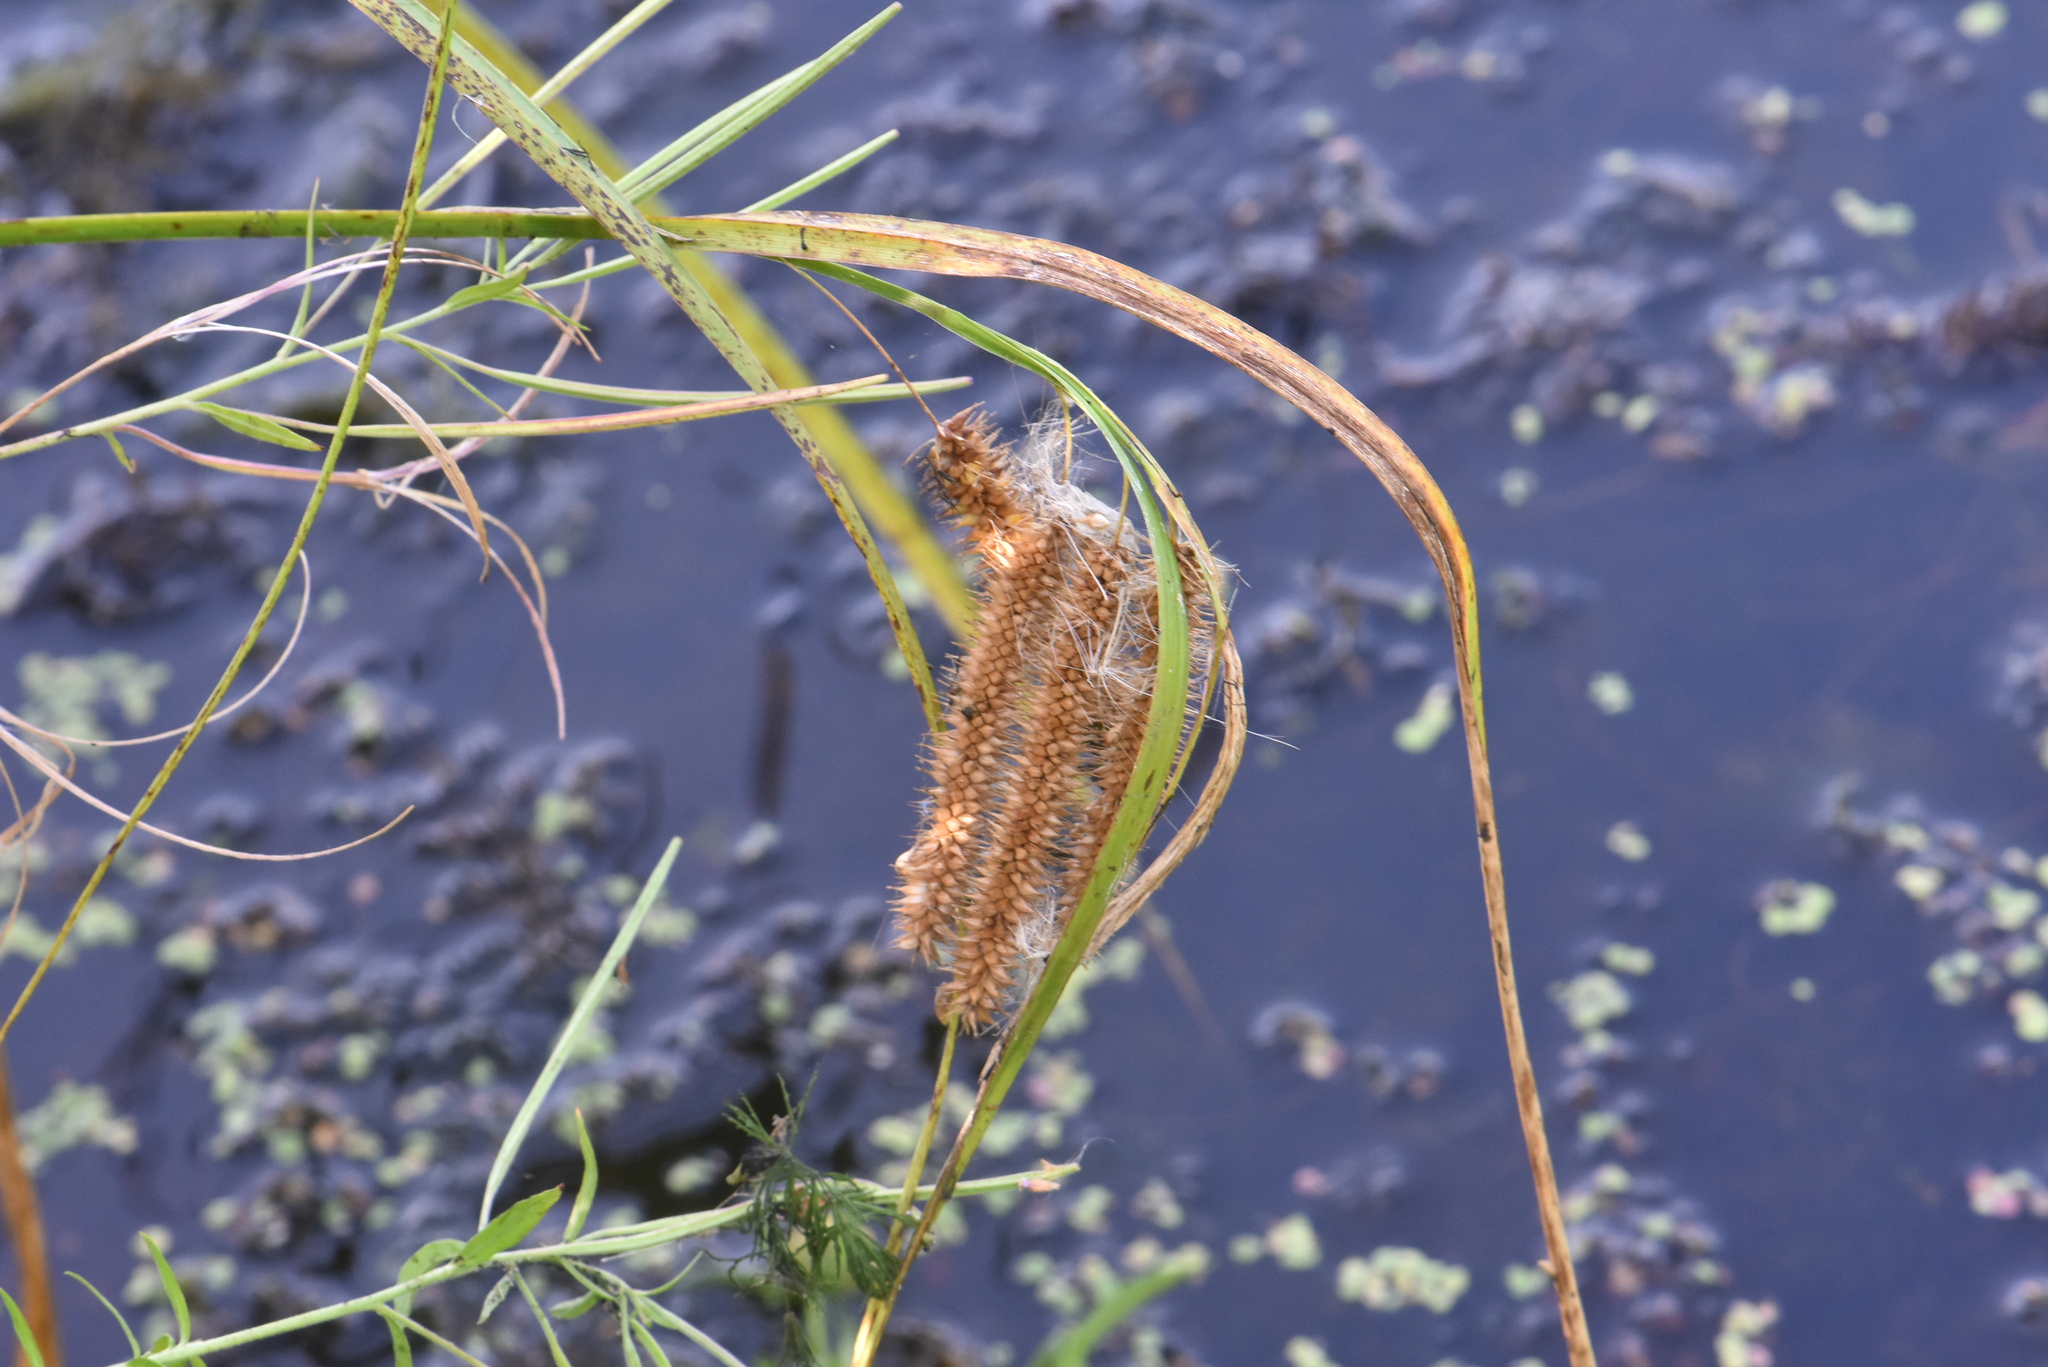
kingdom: Plantae
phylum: Tracheophyta
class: Liliopsida
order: Poales
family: Cyperaceae
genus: Carex
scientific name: Carex pseudocyperus
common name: Cyperus sedge
